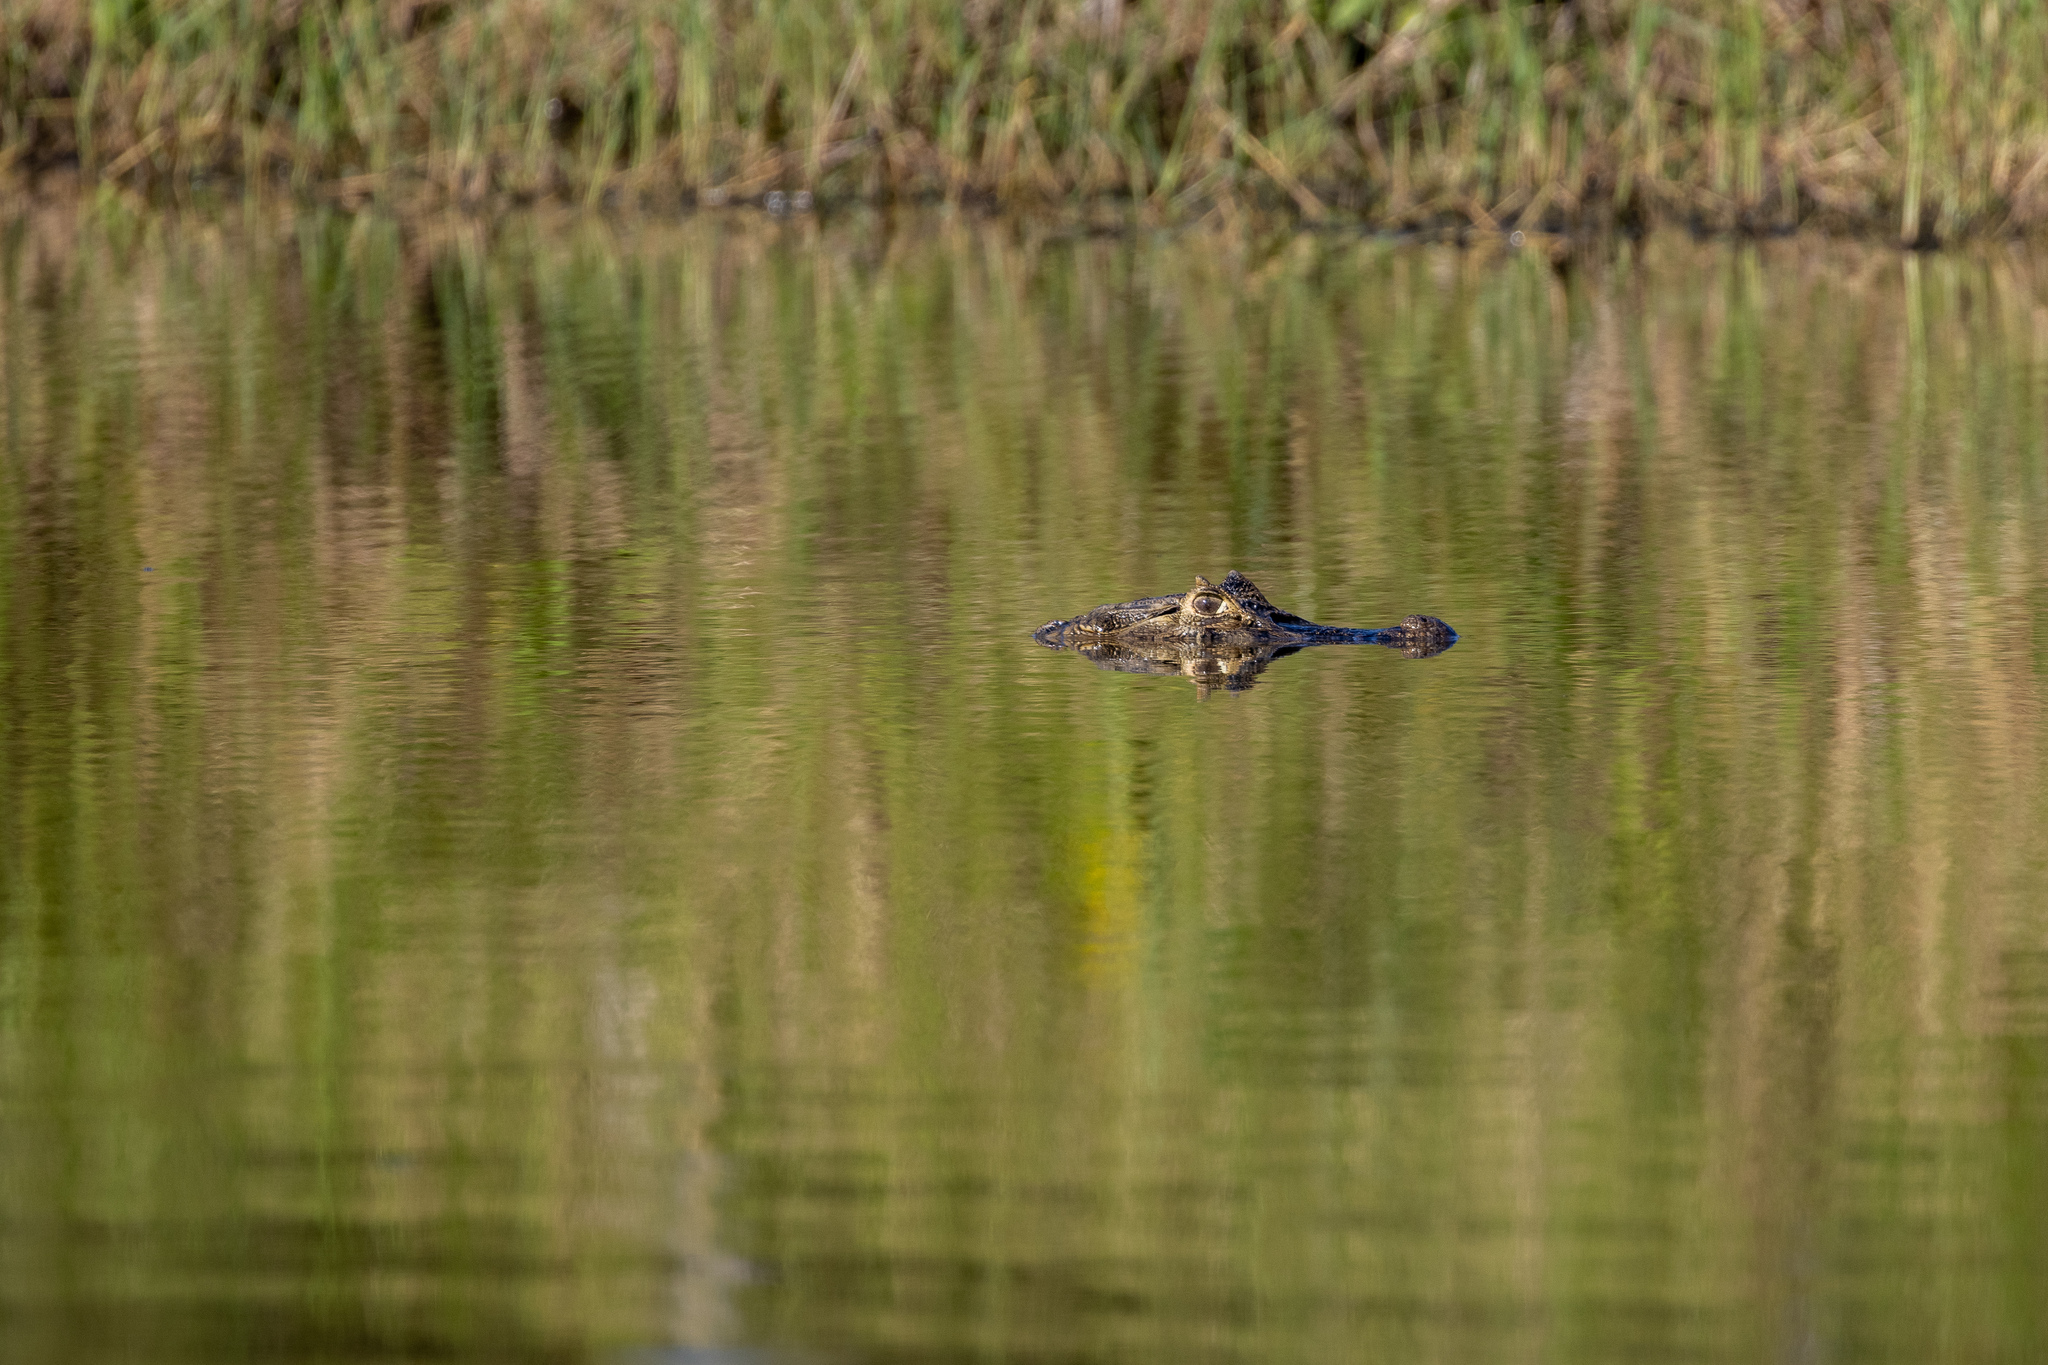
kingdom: Animalia
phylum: Chordata
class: Crocodylia
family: Alligatoridae
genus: Caiman
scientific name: Caiman latirostris
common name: Broad-snouted caiman
